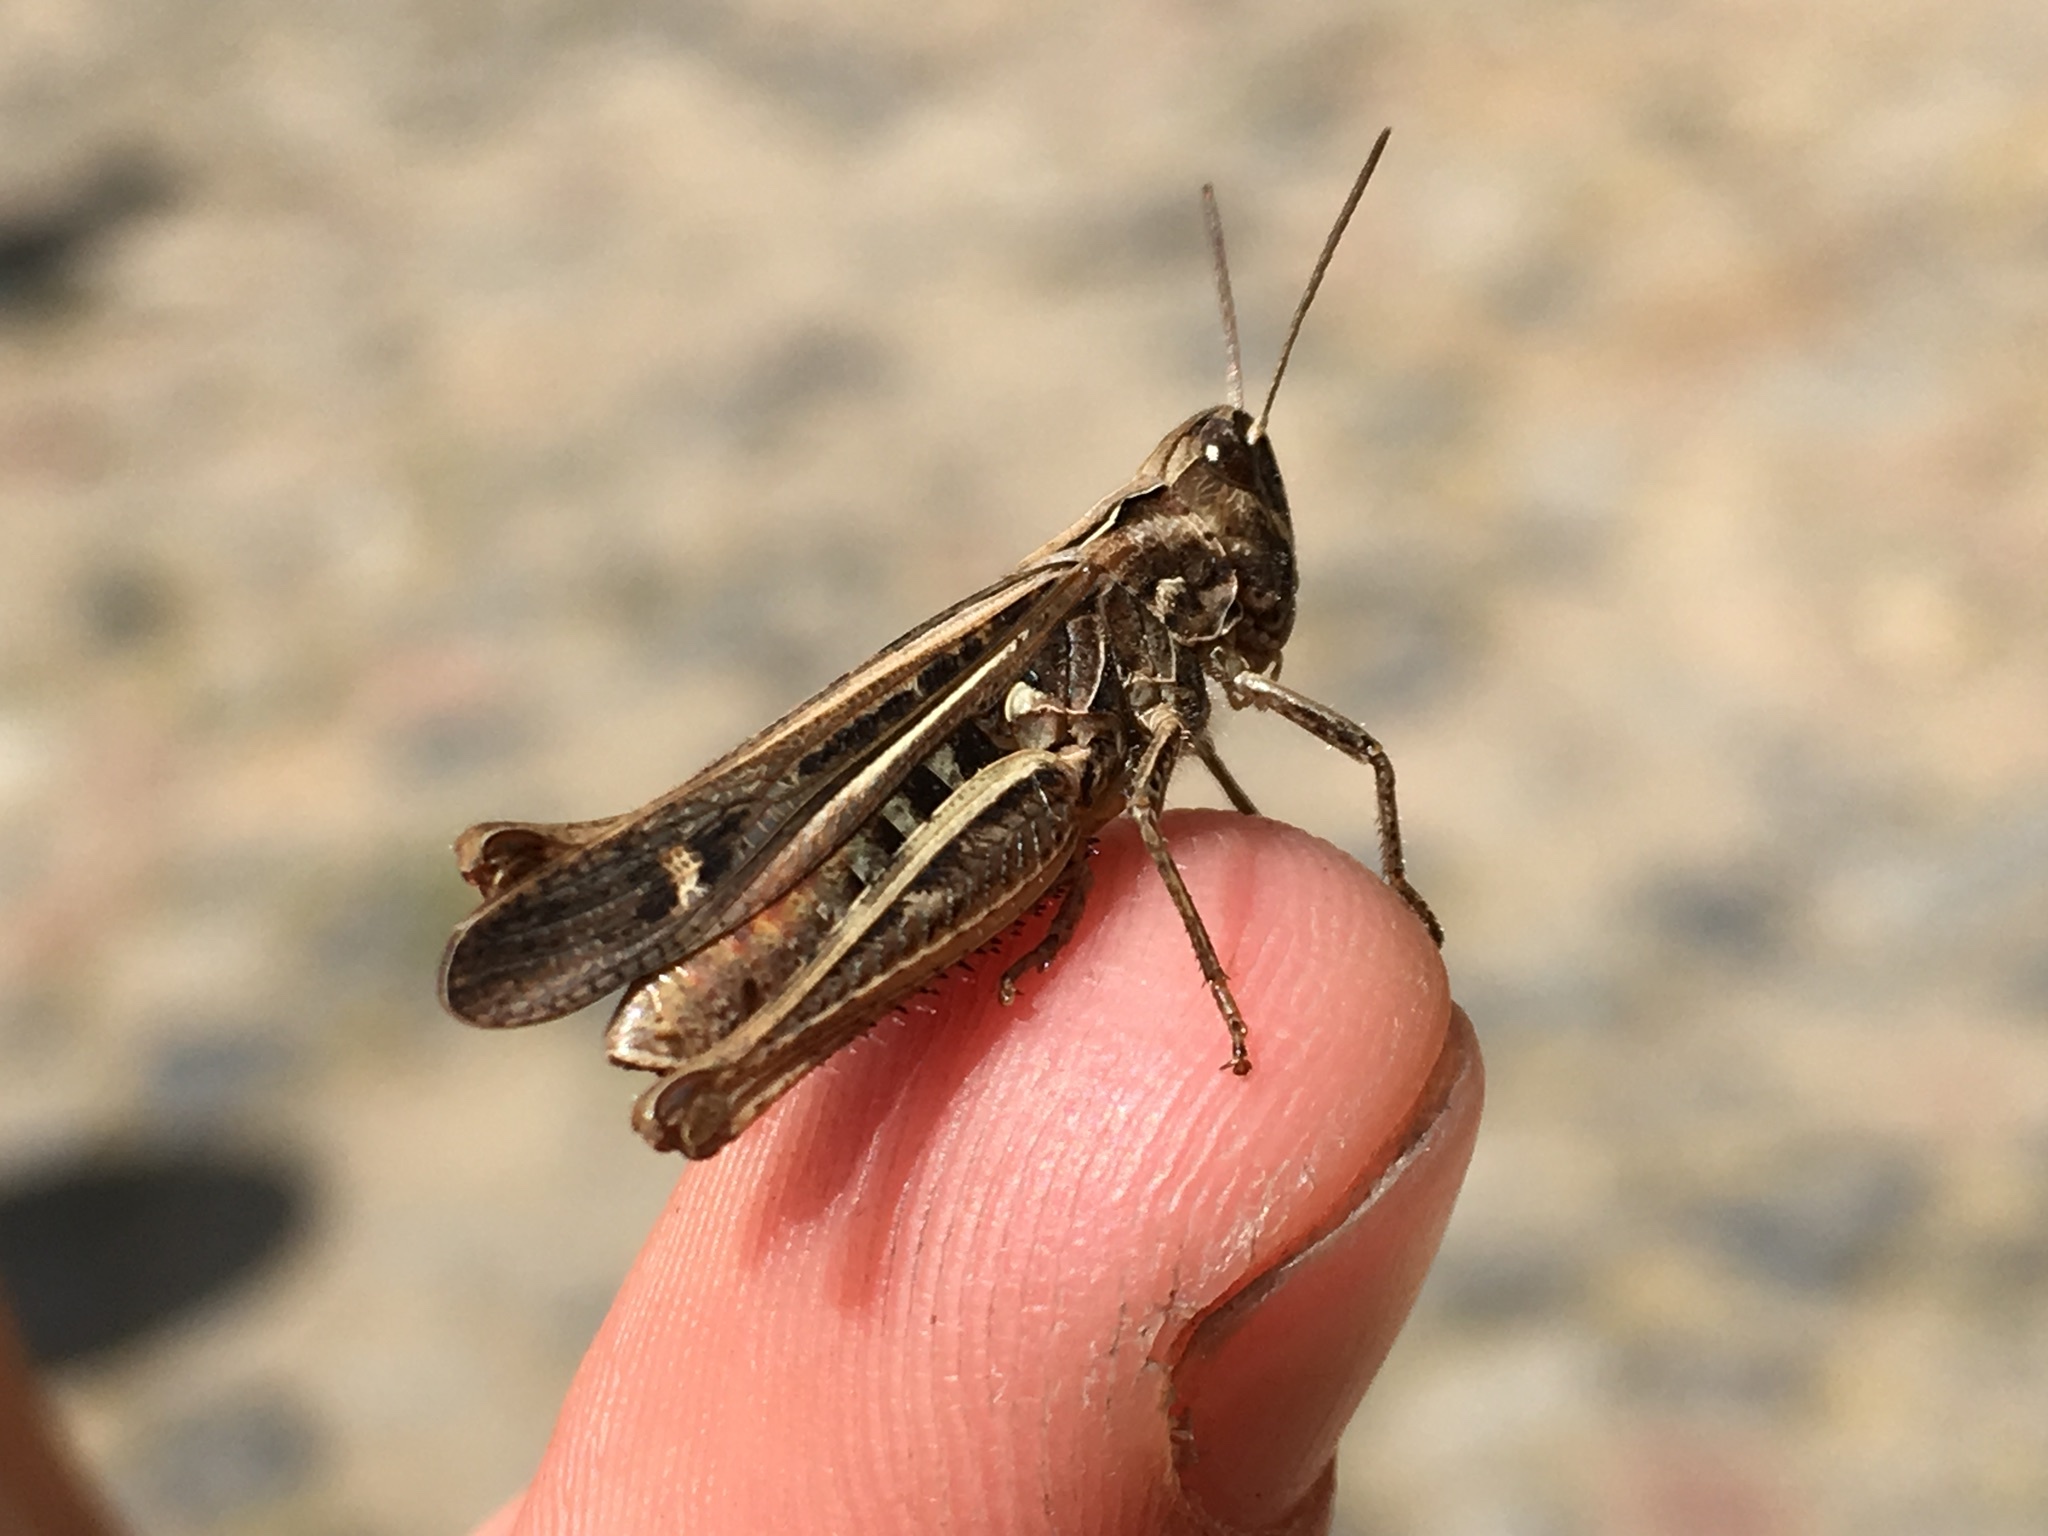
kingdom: Animalia
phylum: Arthropoda
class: Insecta
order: Orthoptera
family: Acrididae
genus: Chorthippus
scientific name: Chorthippus brunneus
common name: Field grasshopper
